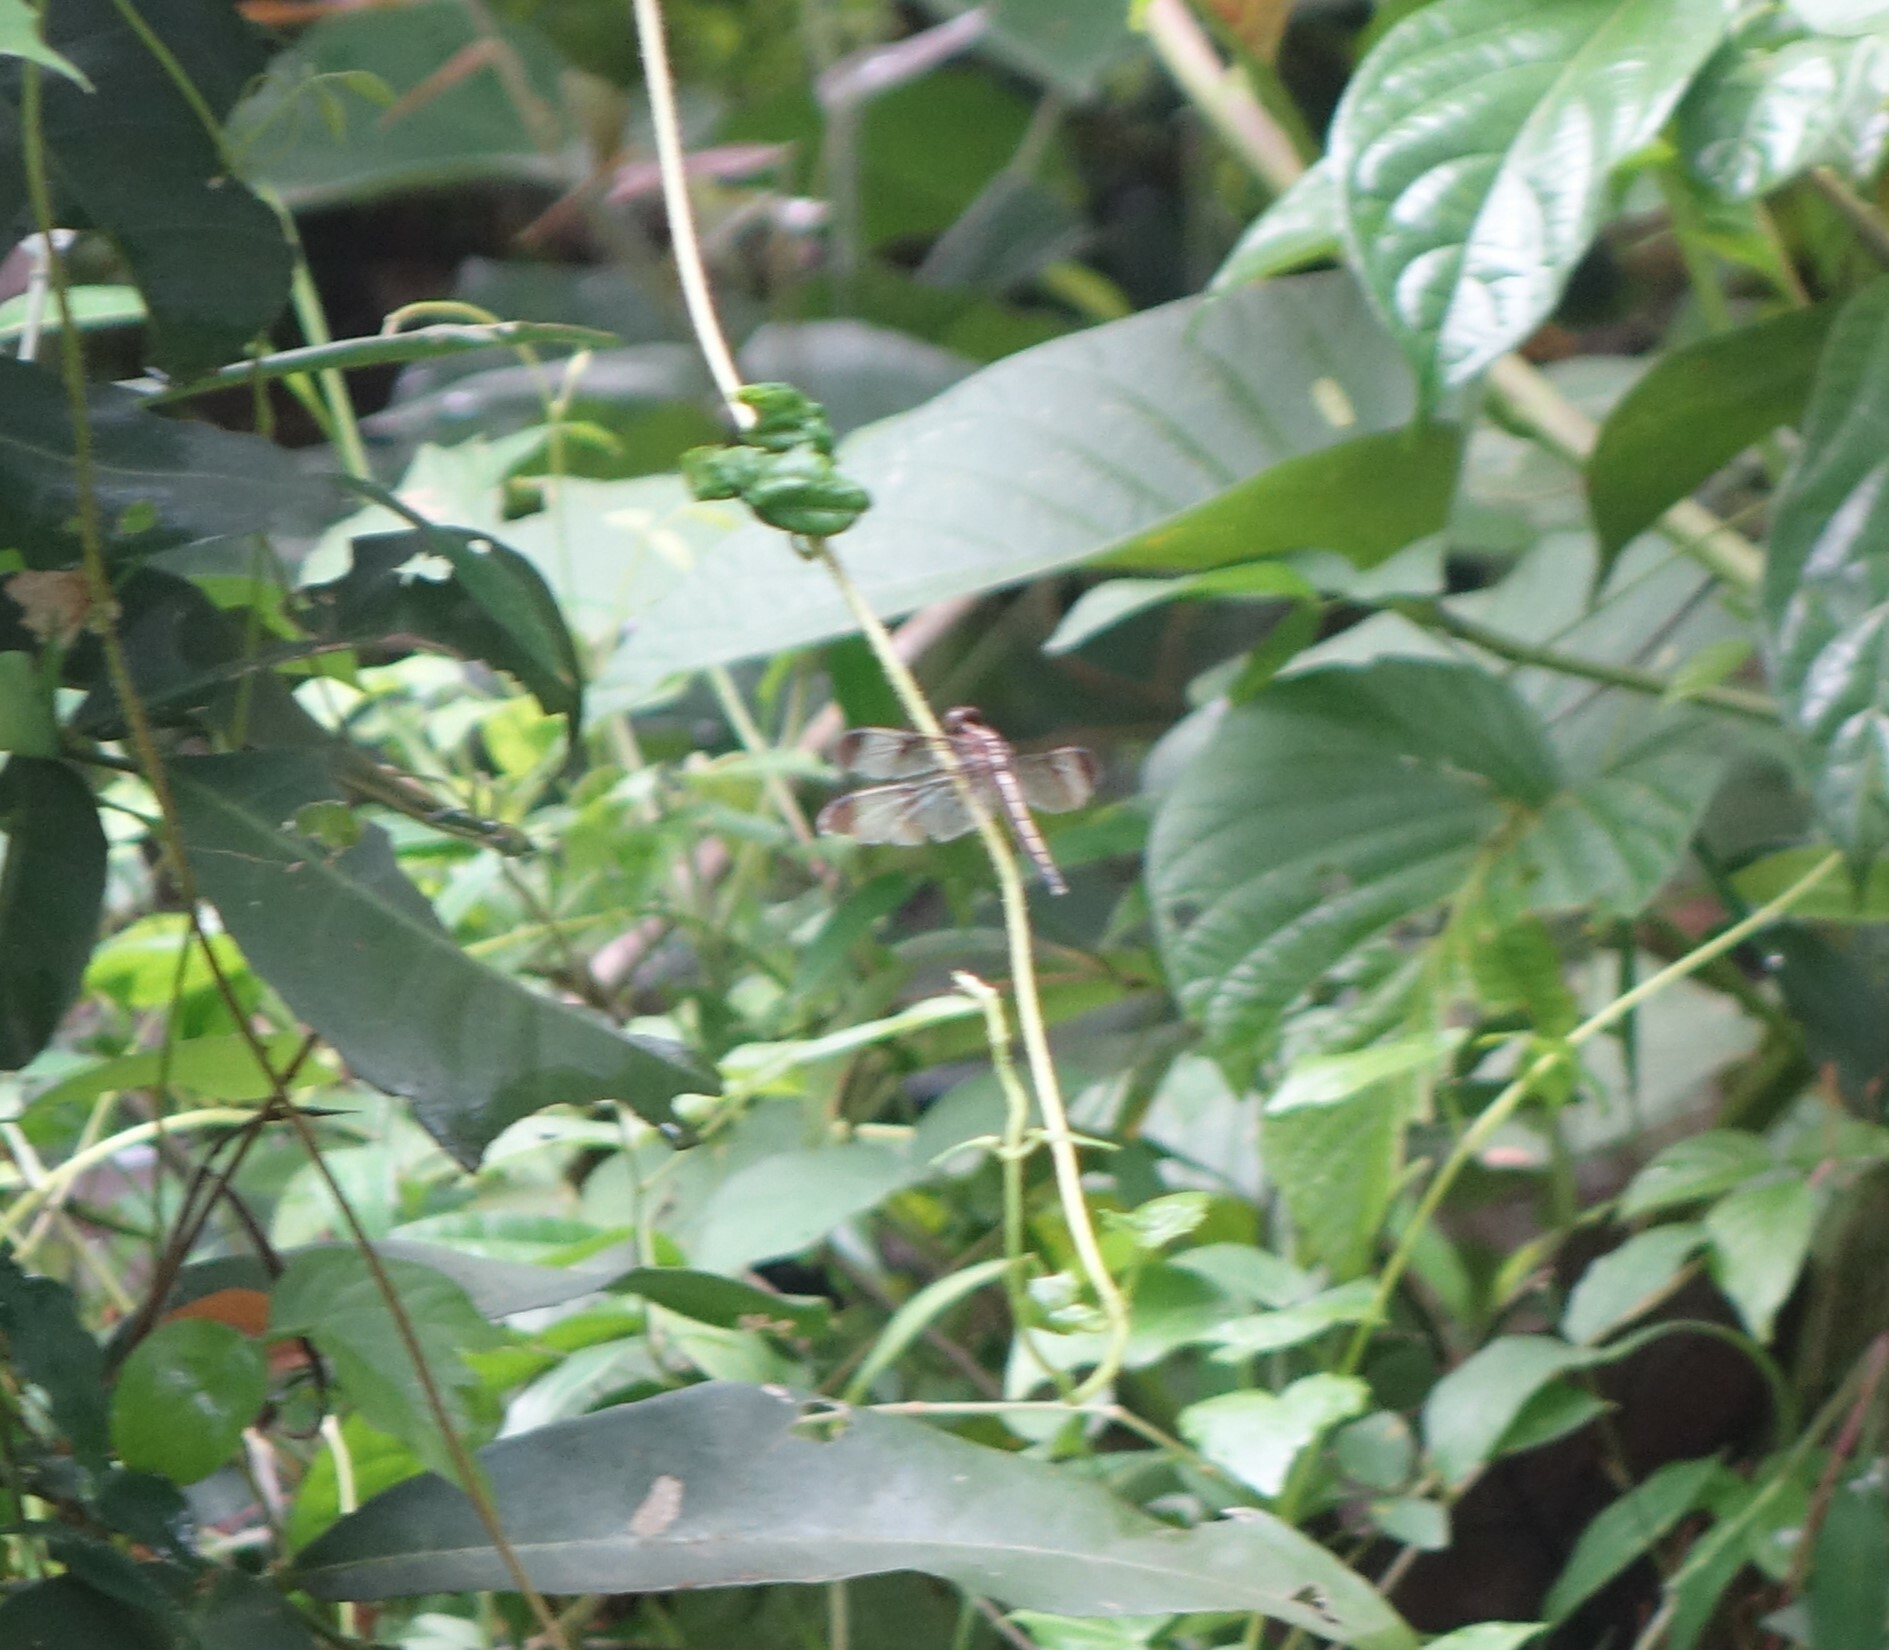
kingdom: Animalia
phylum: Arthropoda
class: Insecta
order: Odonata
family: Libellulidae
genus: Neurothemis
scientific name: Neurothemis tullia
